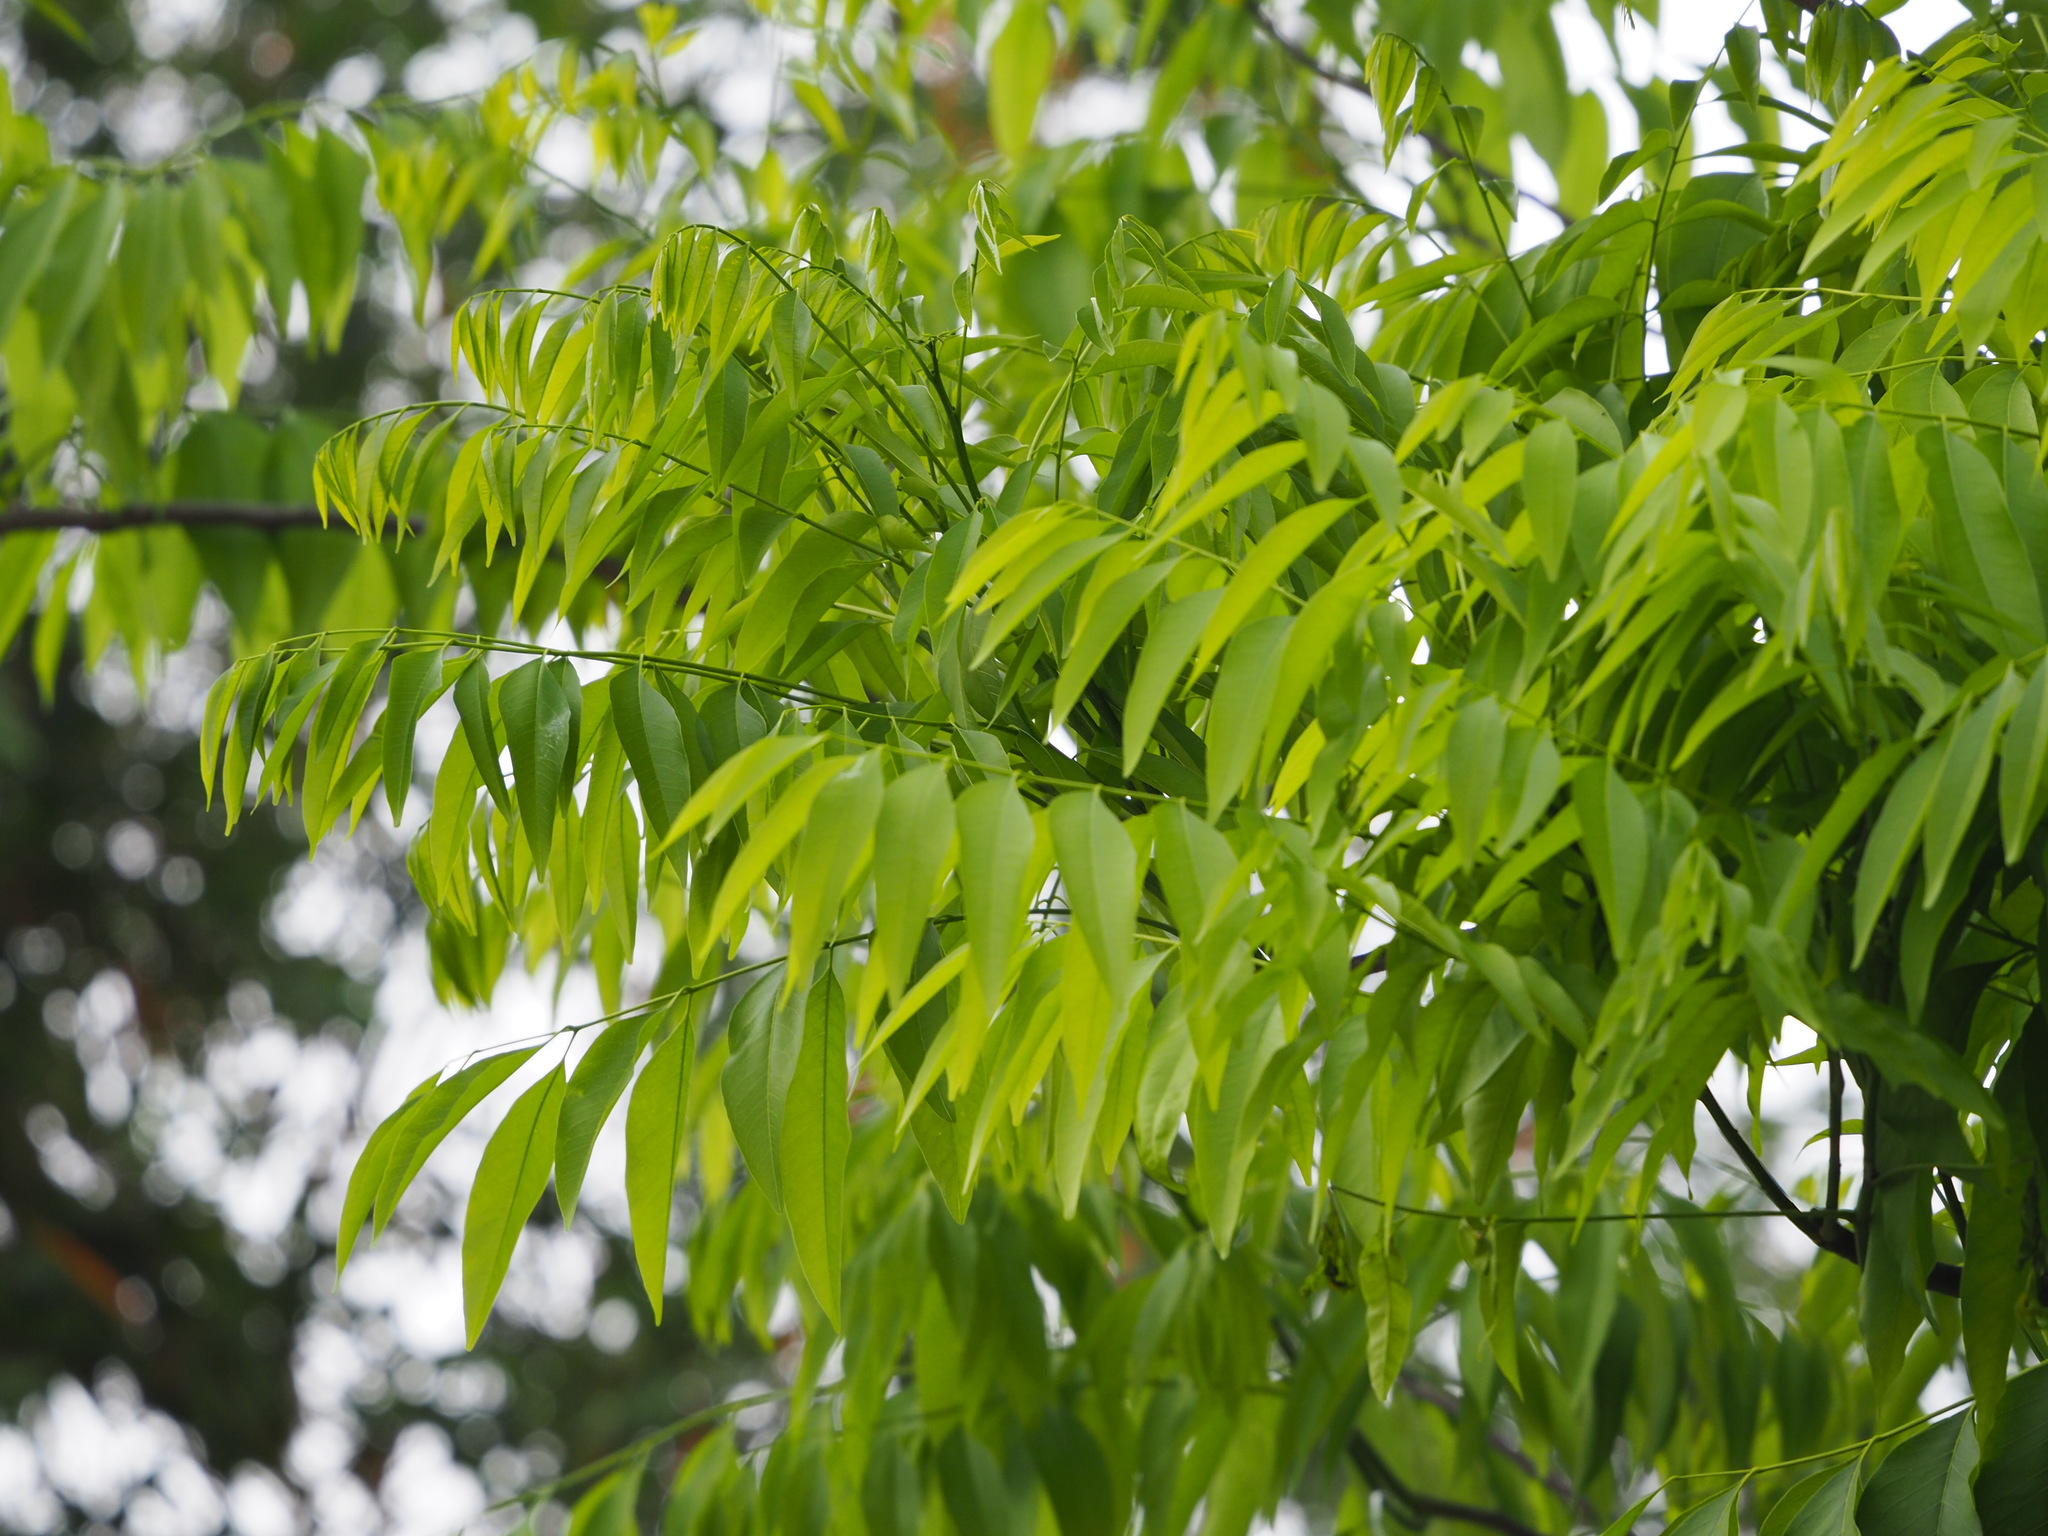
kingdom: Plantae
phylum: Tracheophyta
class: Magnoliopsida
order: Sapindales
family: Sapindaceae
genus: Sapindus
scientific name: Sapindus mukorossi
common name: Chinese soapberry
